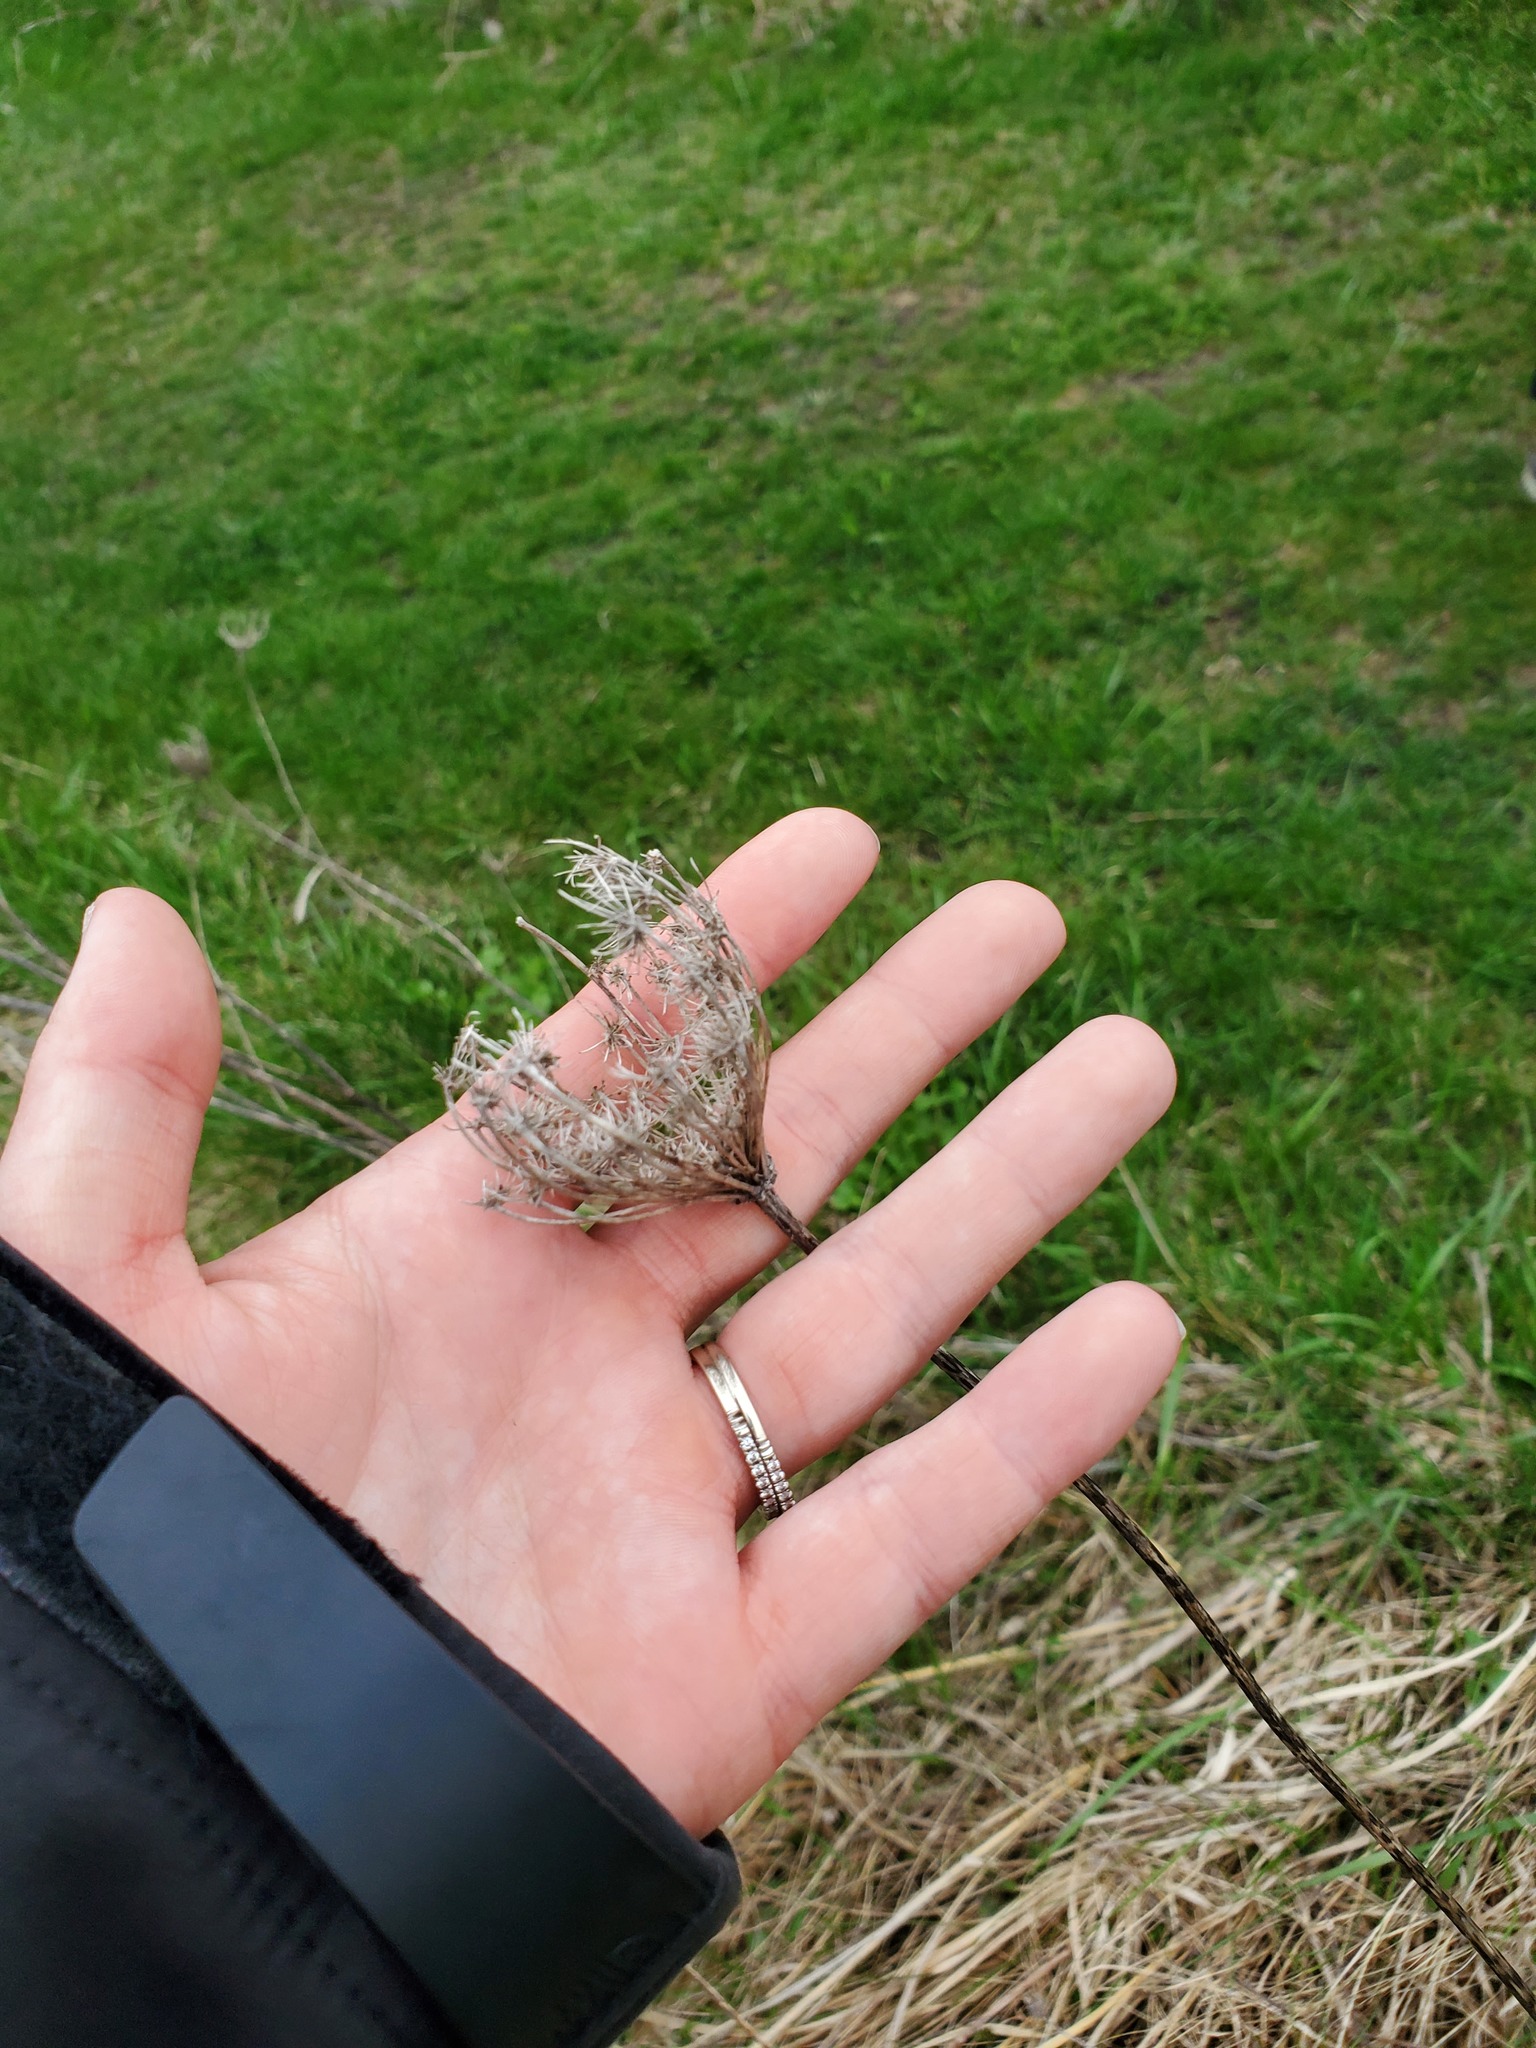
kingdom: Plantae
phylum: Tracheophyta
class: Magnoliopsida
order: Apiales
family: Apiaceae
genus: Daucus
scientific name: Daucus carota
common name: Wild carrot
